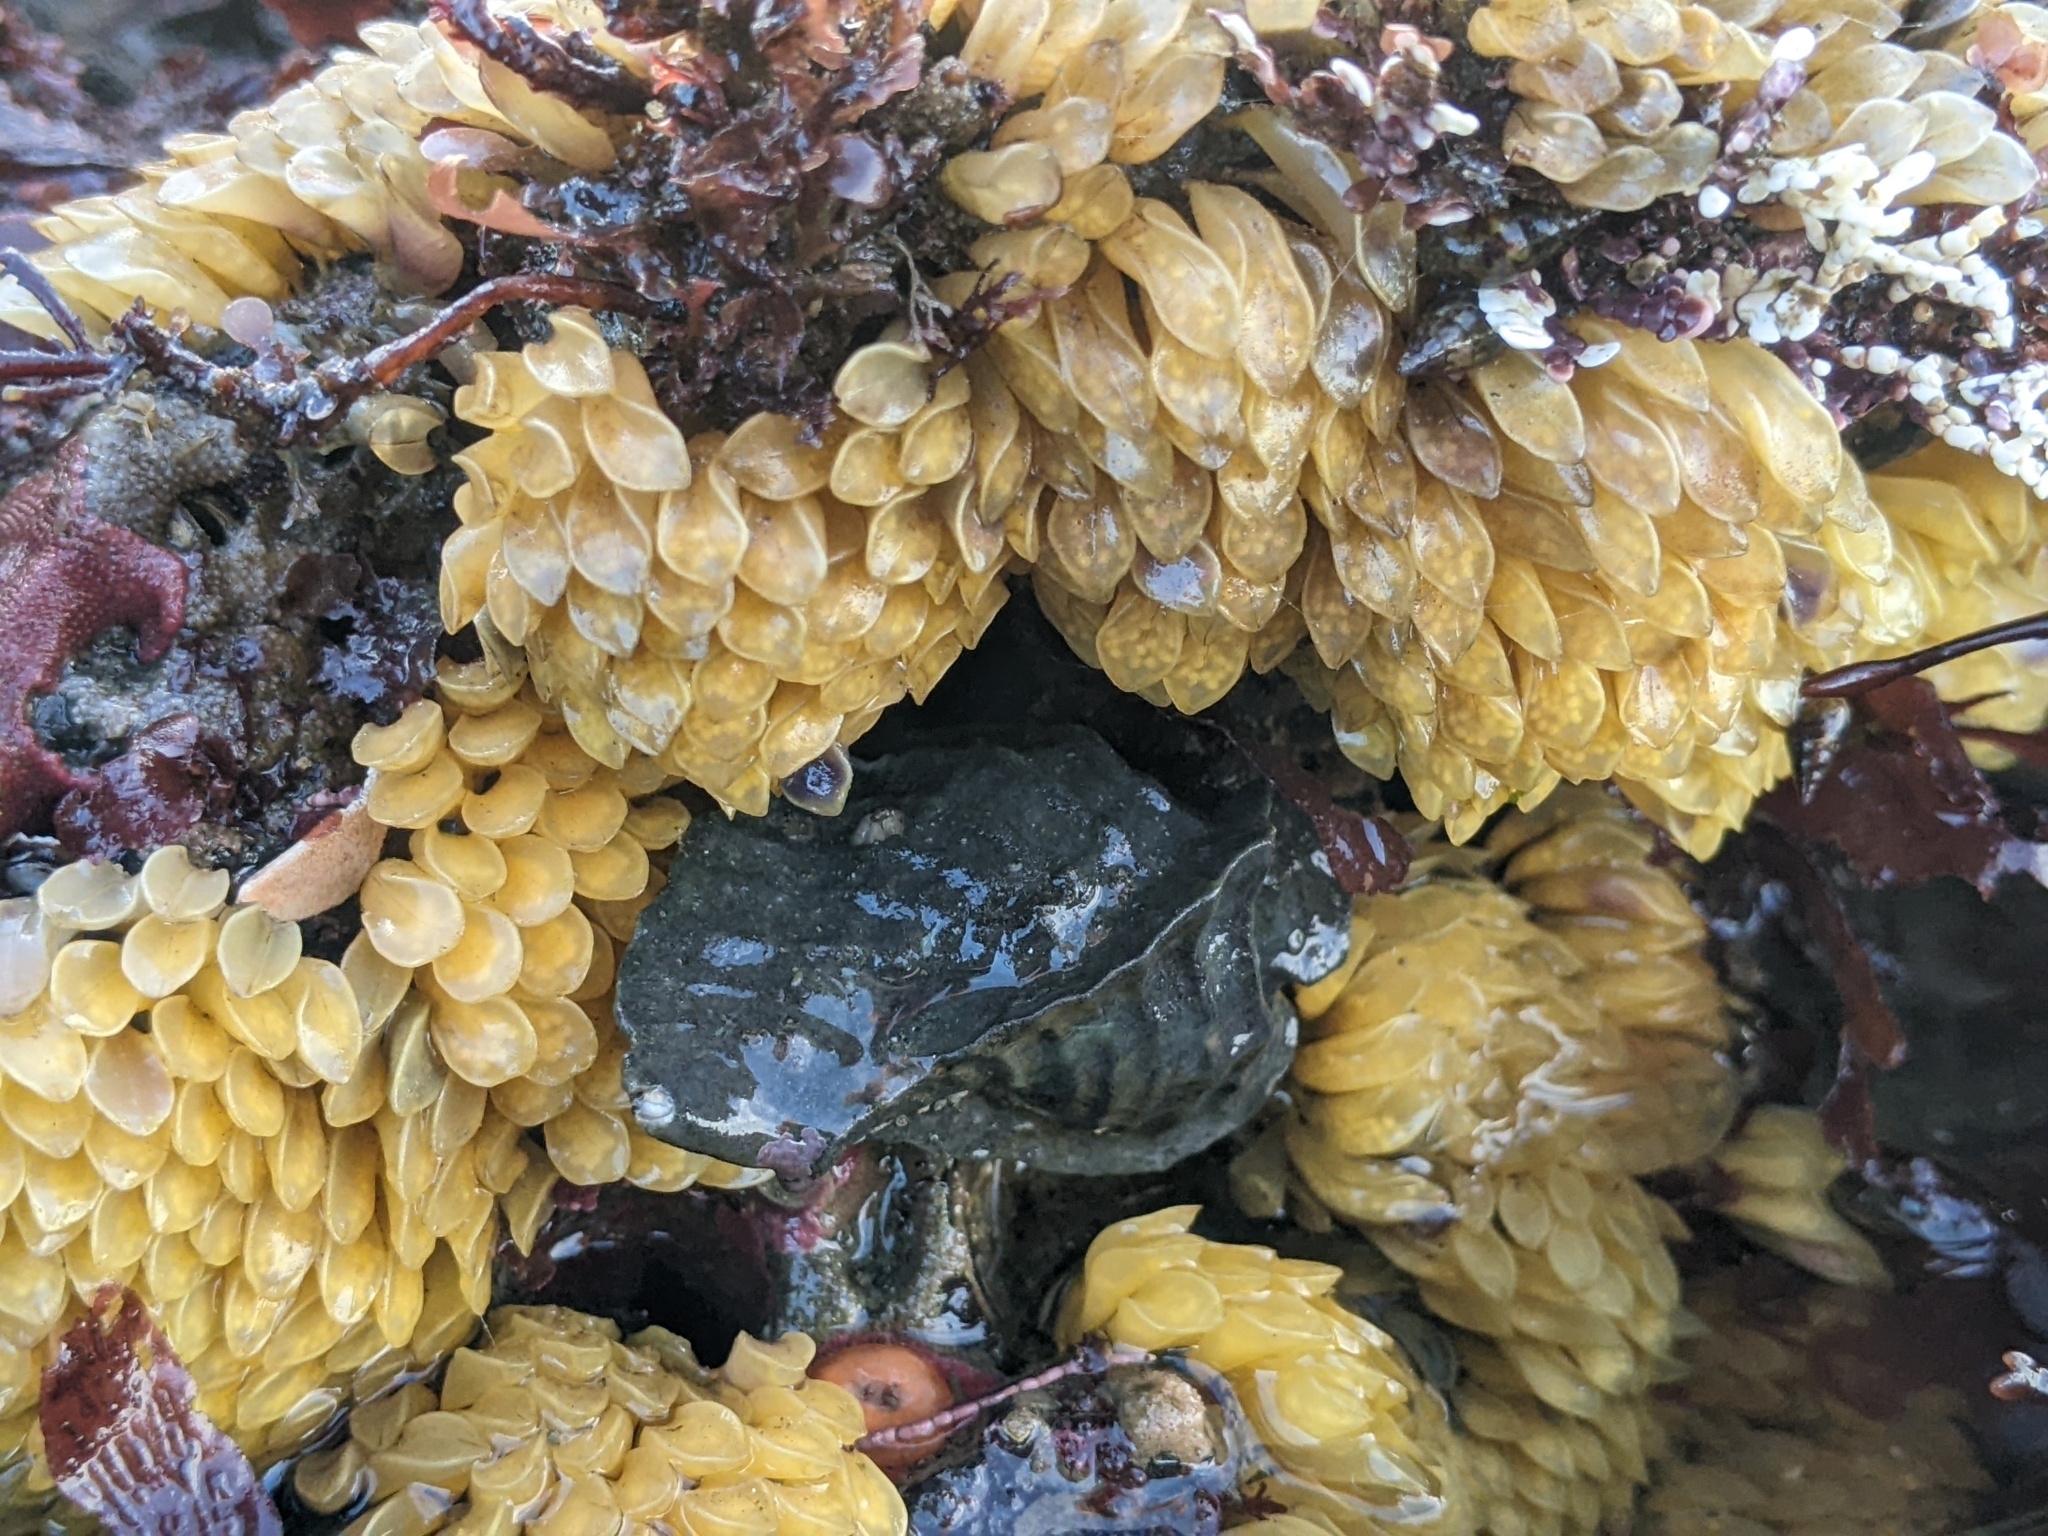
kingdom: Animalia
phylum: Mollusca
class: Gastropoda
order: Neogastropoda
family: Muricidae
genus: Ceratostoma
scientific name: Ceratostoma foliatum
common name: Foliate thorn purpura
